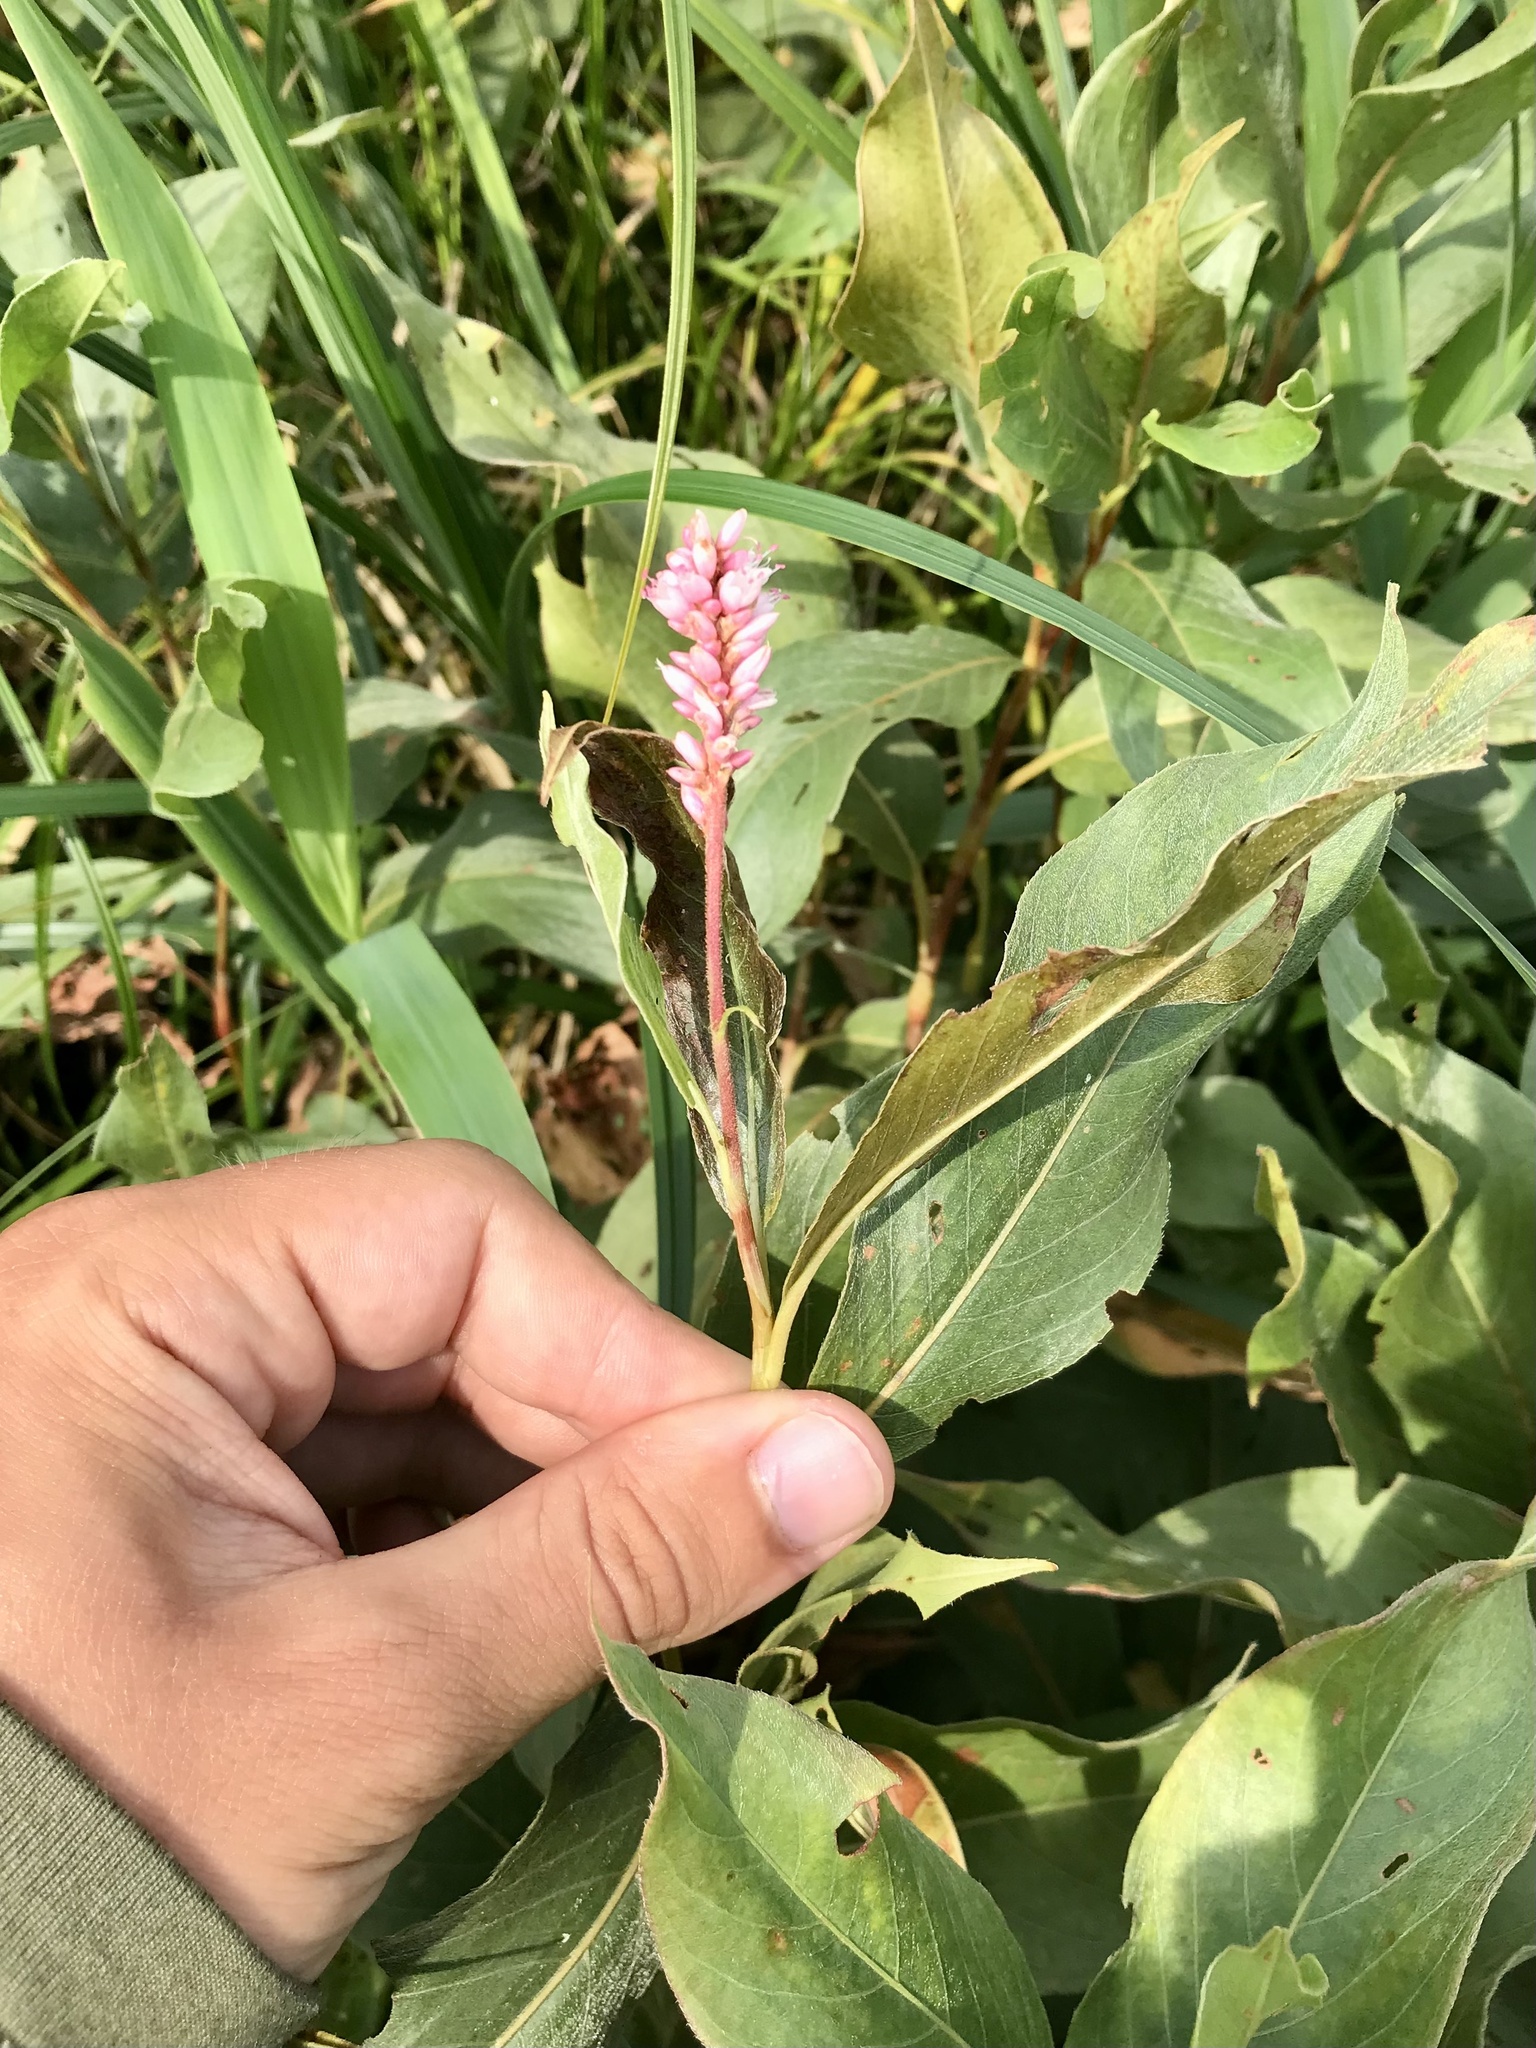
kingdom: Plantae
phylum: Tracheophyta
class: Magnoliopsida
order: Caryophyllales
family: Polygonaceae
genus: Persicaria
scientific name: Persicaria amphibia
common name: Amphibious bistort
